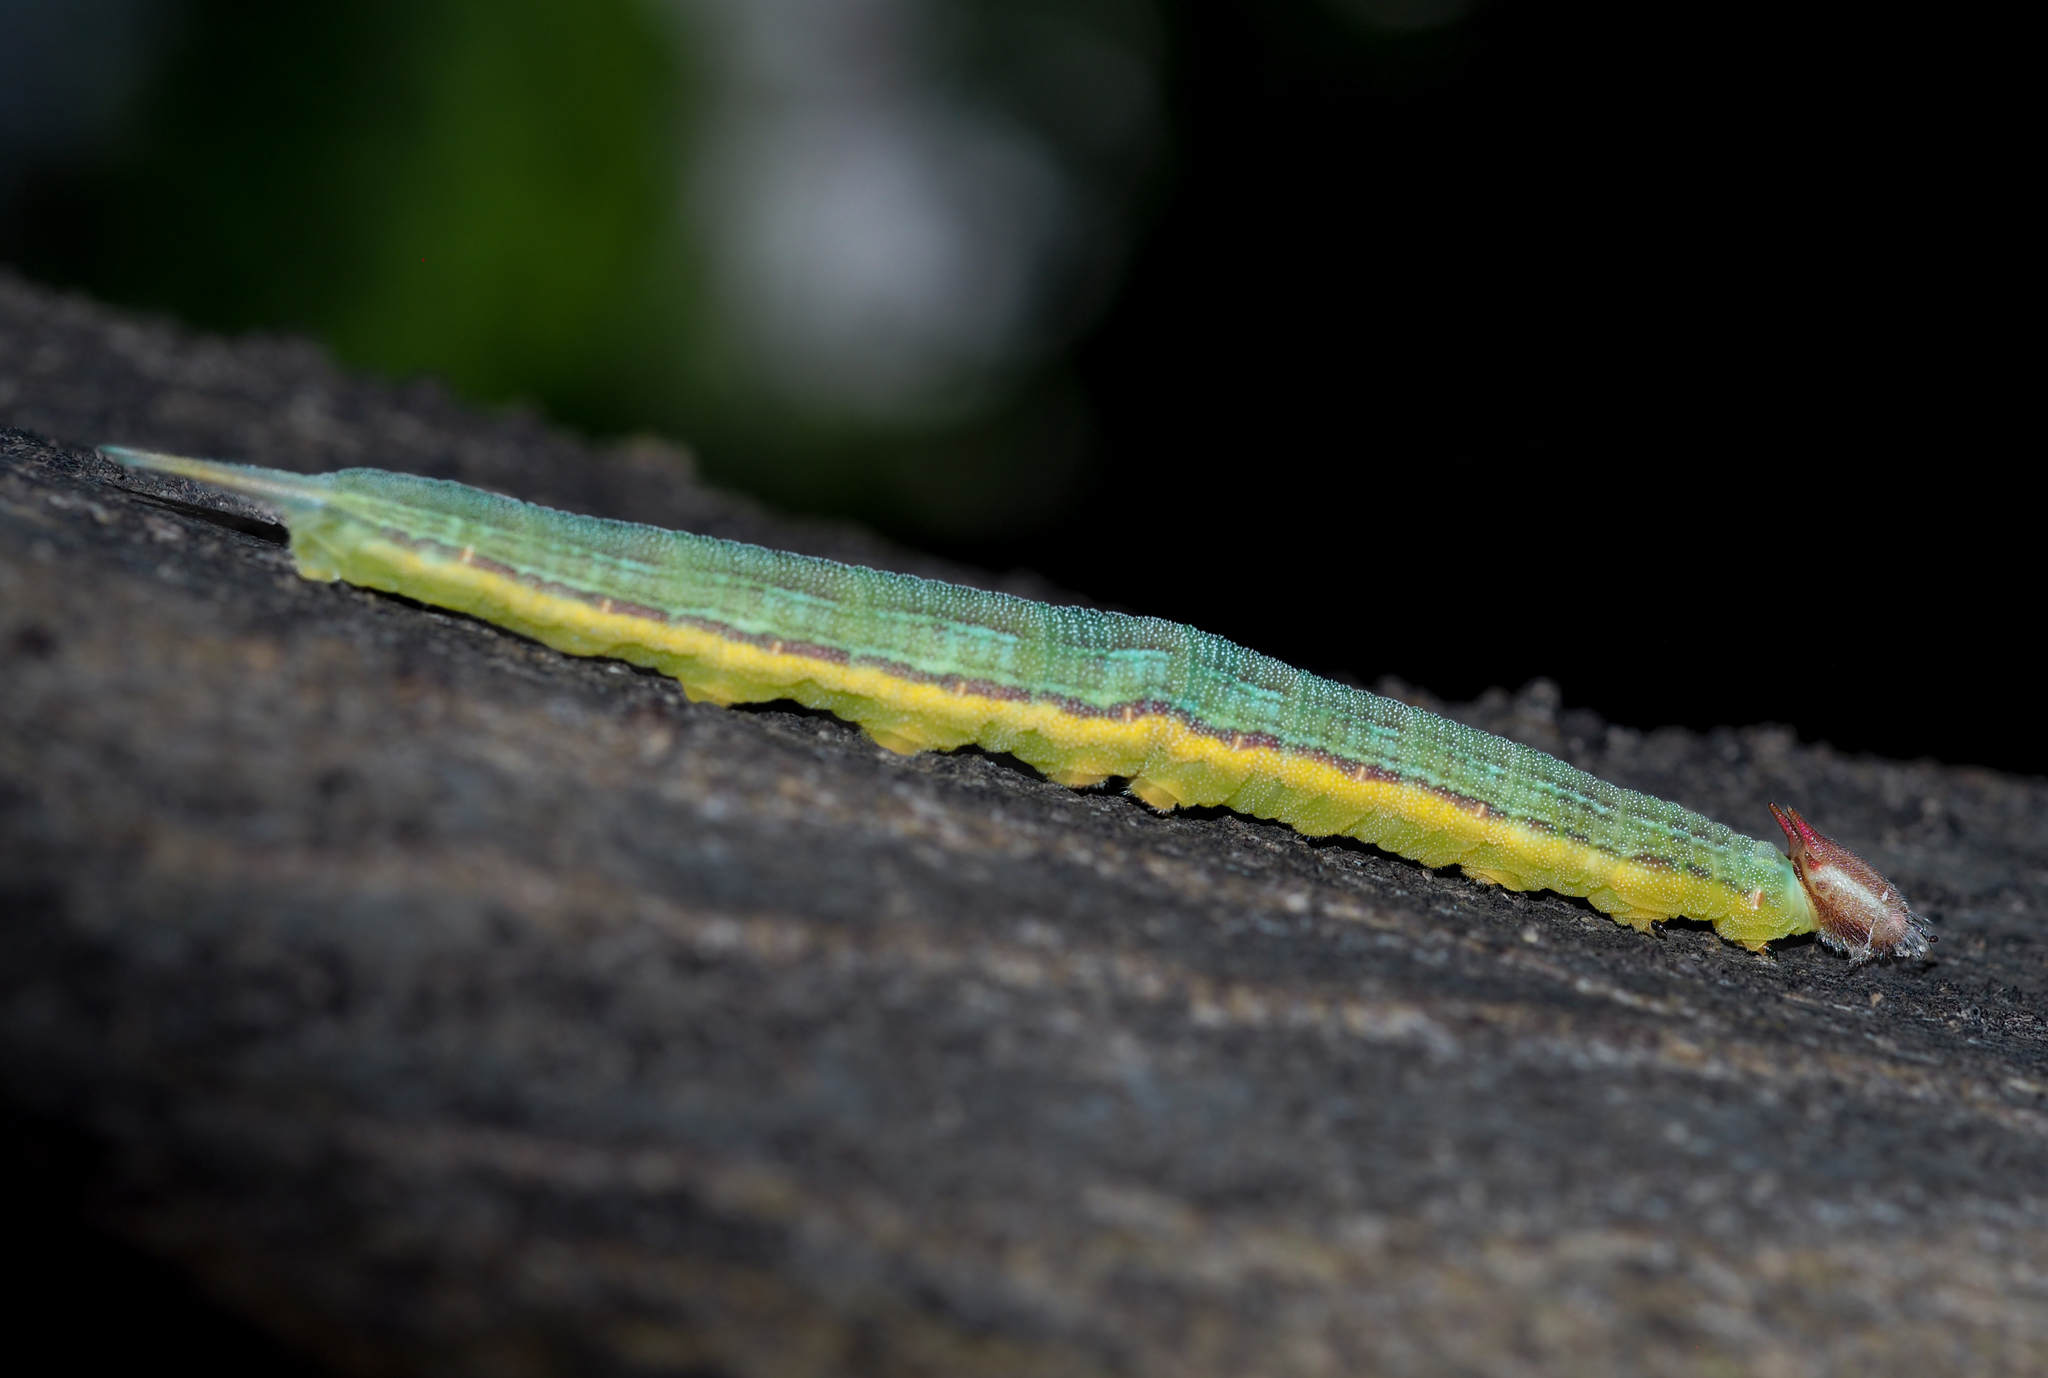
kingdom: Animalia
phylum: Arthropoda
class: Insecta
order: Lepidoptera
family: Nymphalidae
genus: Opsiphanes
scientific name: Opsiphanes invirae
